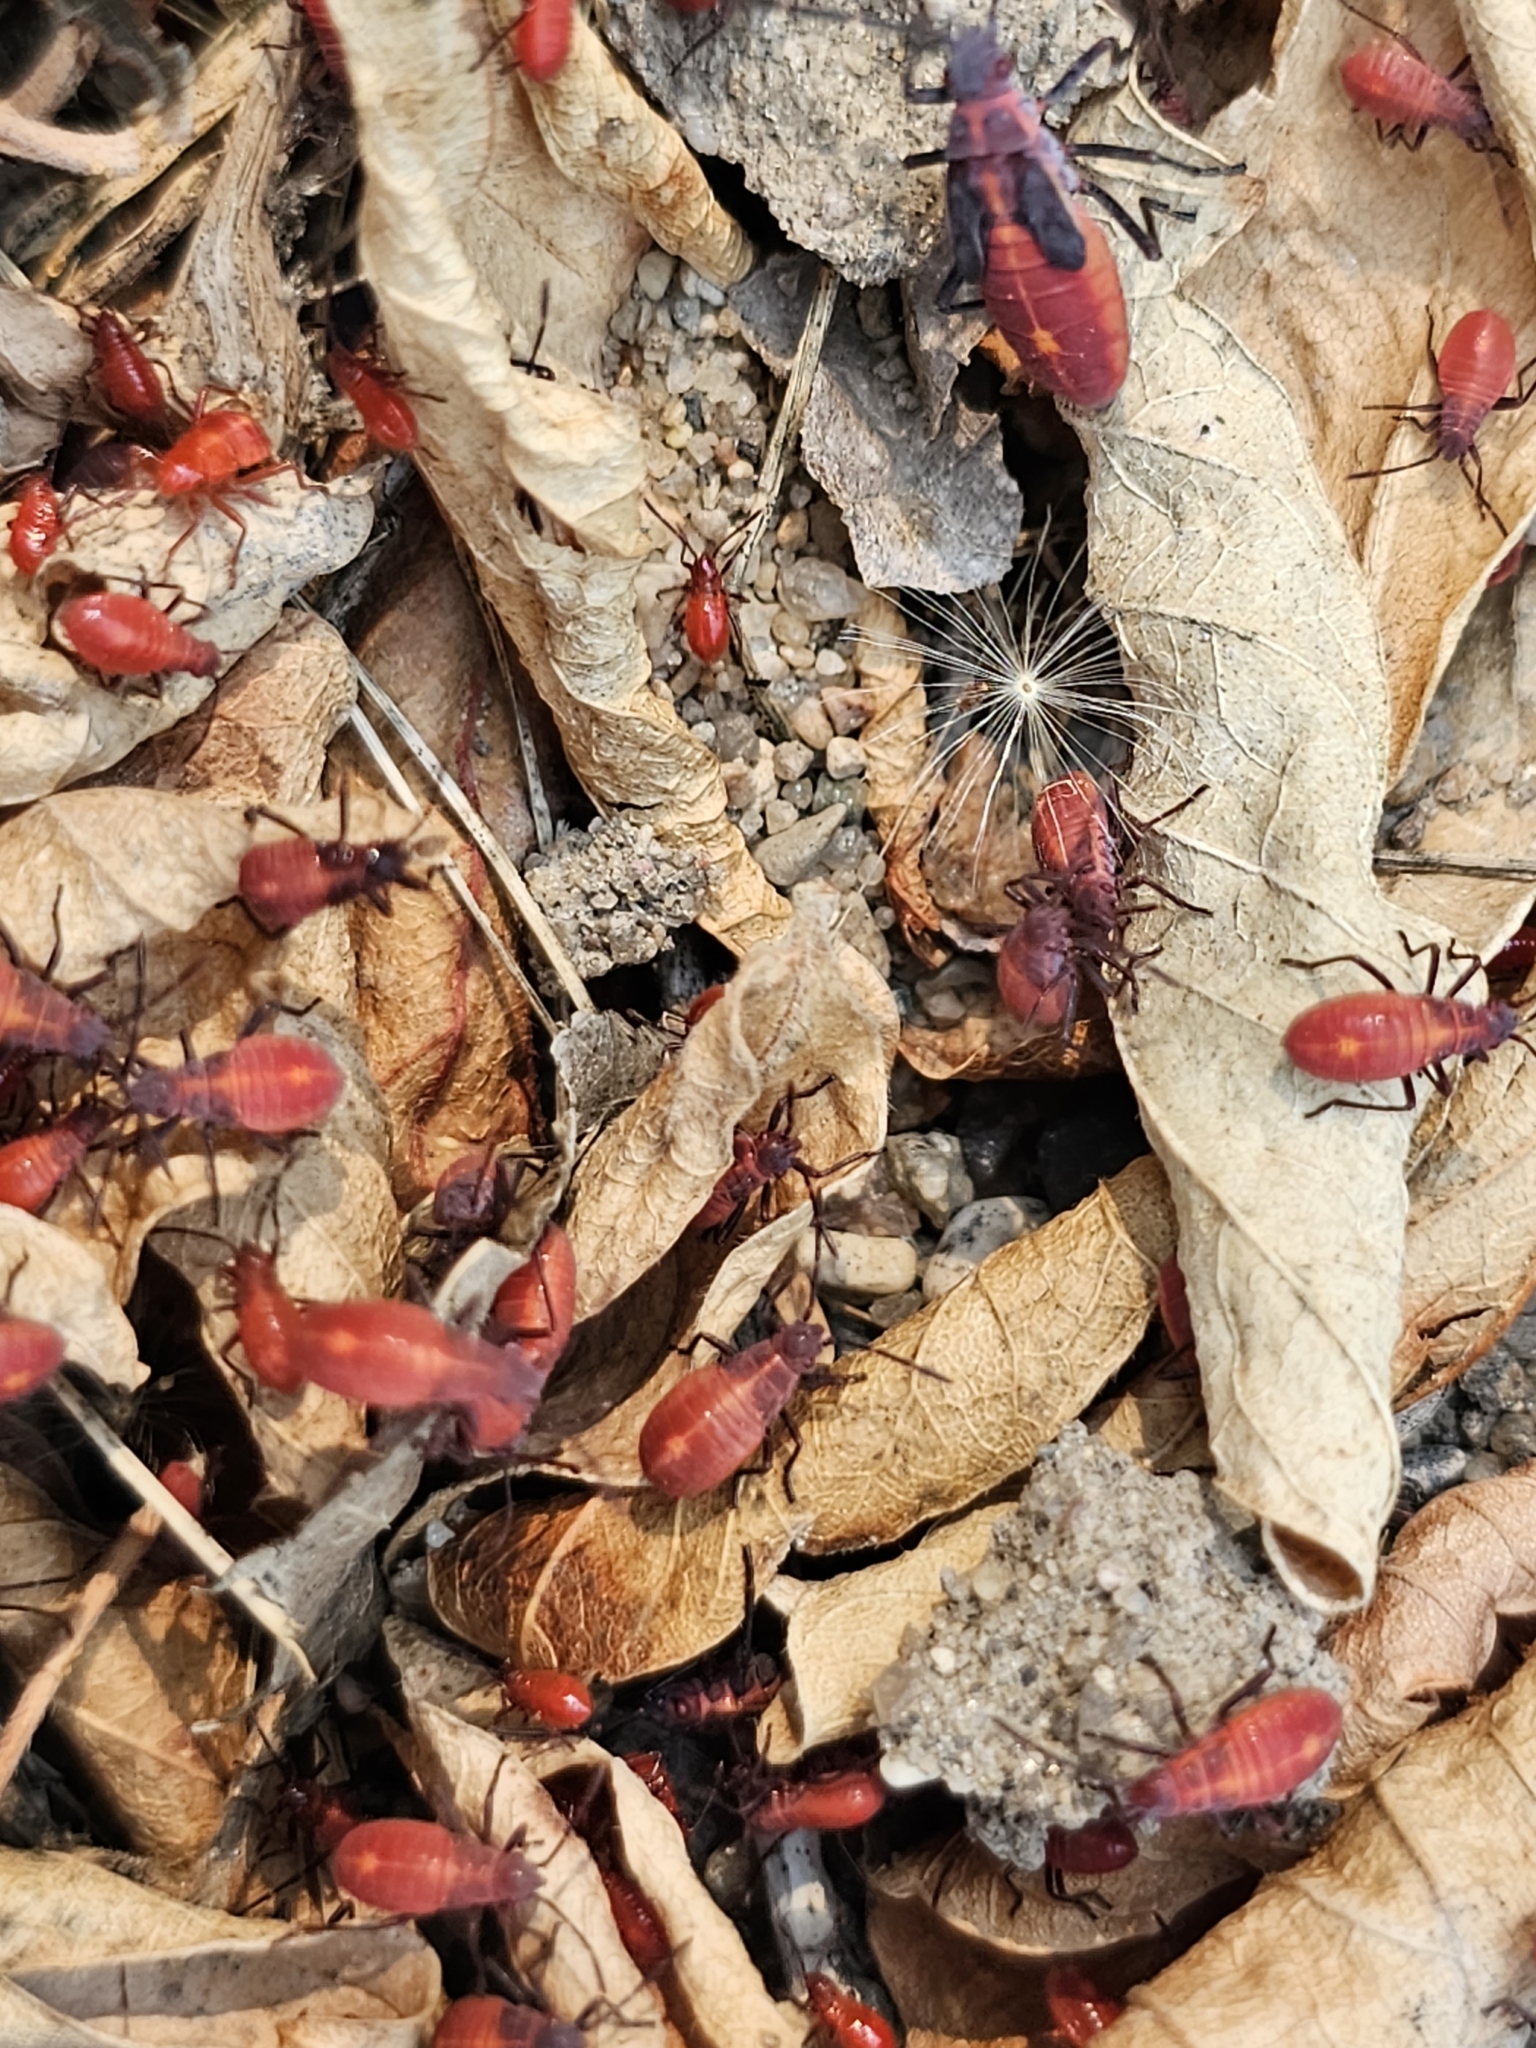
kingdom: Animalia
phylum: Arthropoda
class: Insecta
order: Hemiptera
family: Rhopalidae
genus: Boisea
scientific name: Boisea trivittata
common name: Boxelder bug
